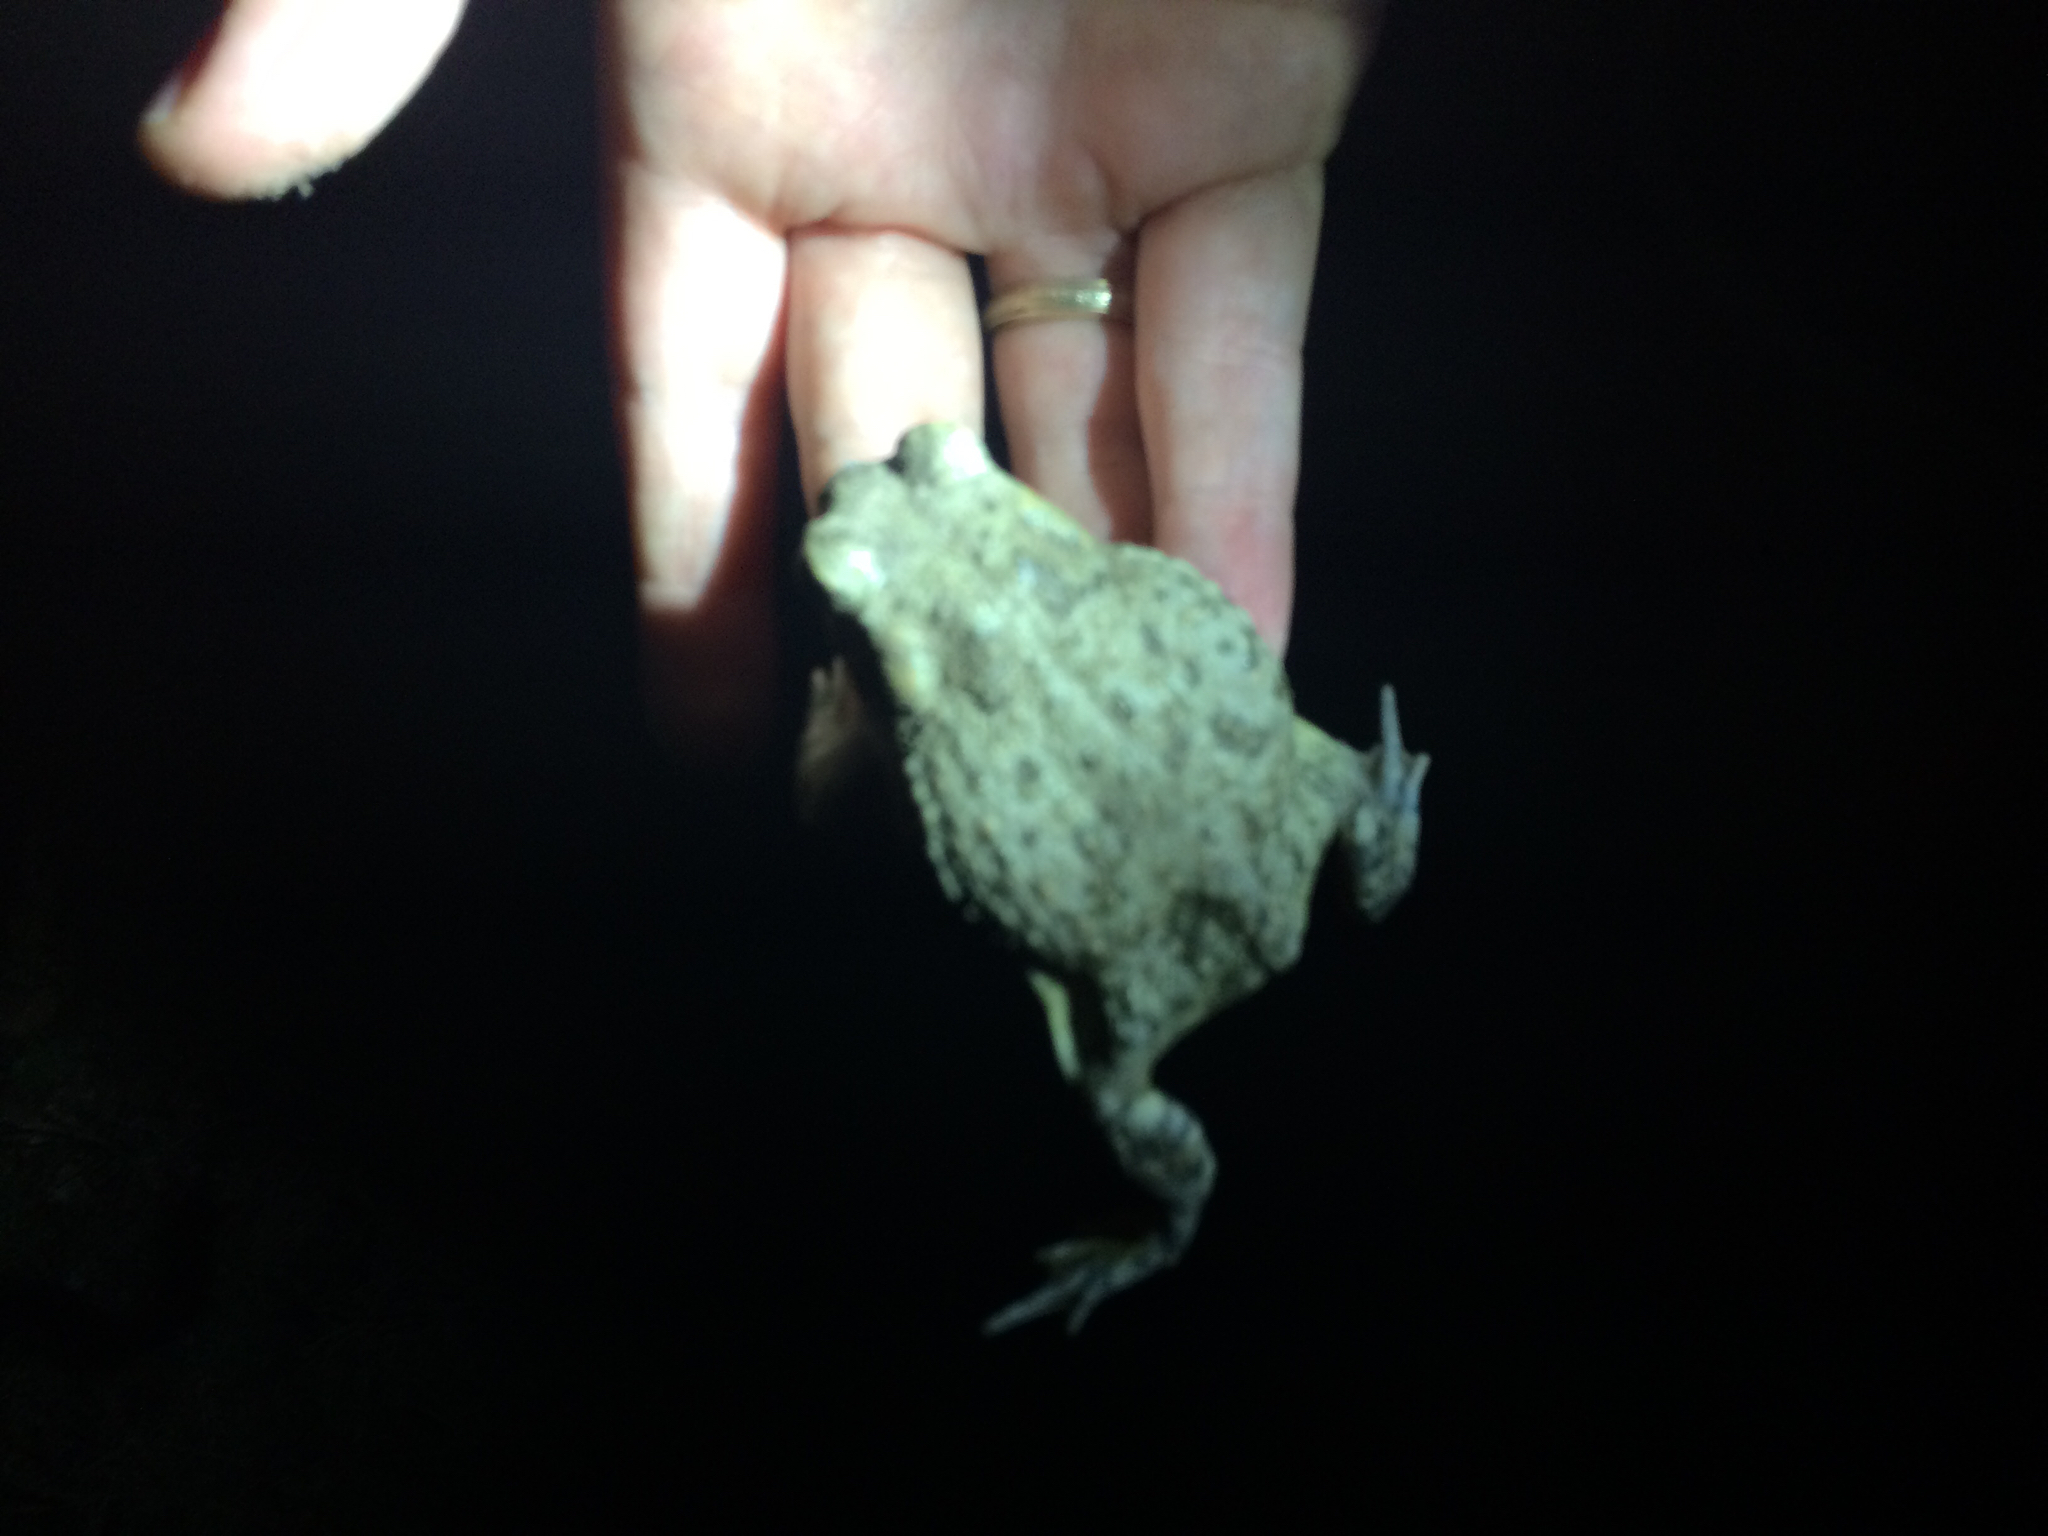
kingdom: Animalia
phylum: Chordata
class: Amphibia
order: Anura
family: Bufonidae
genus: Anaxyrus
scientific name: Anaxyrus speciosus
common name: Texas toad
